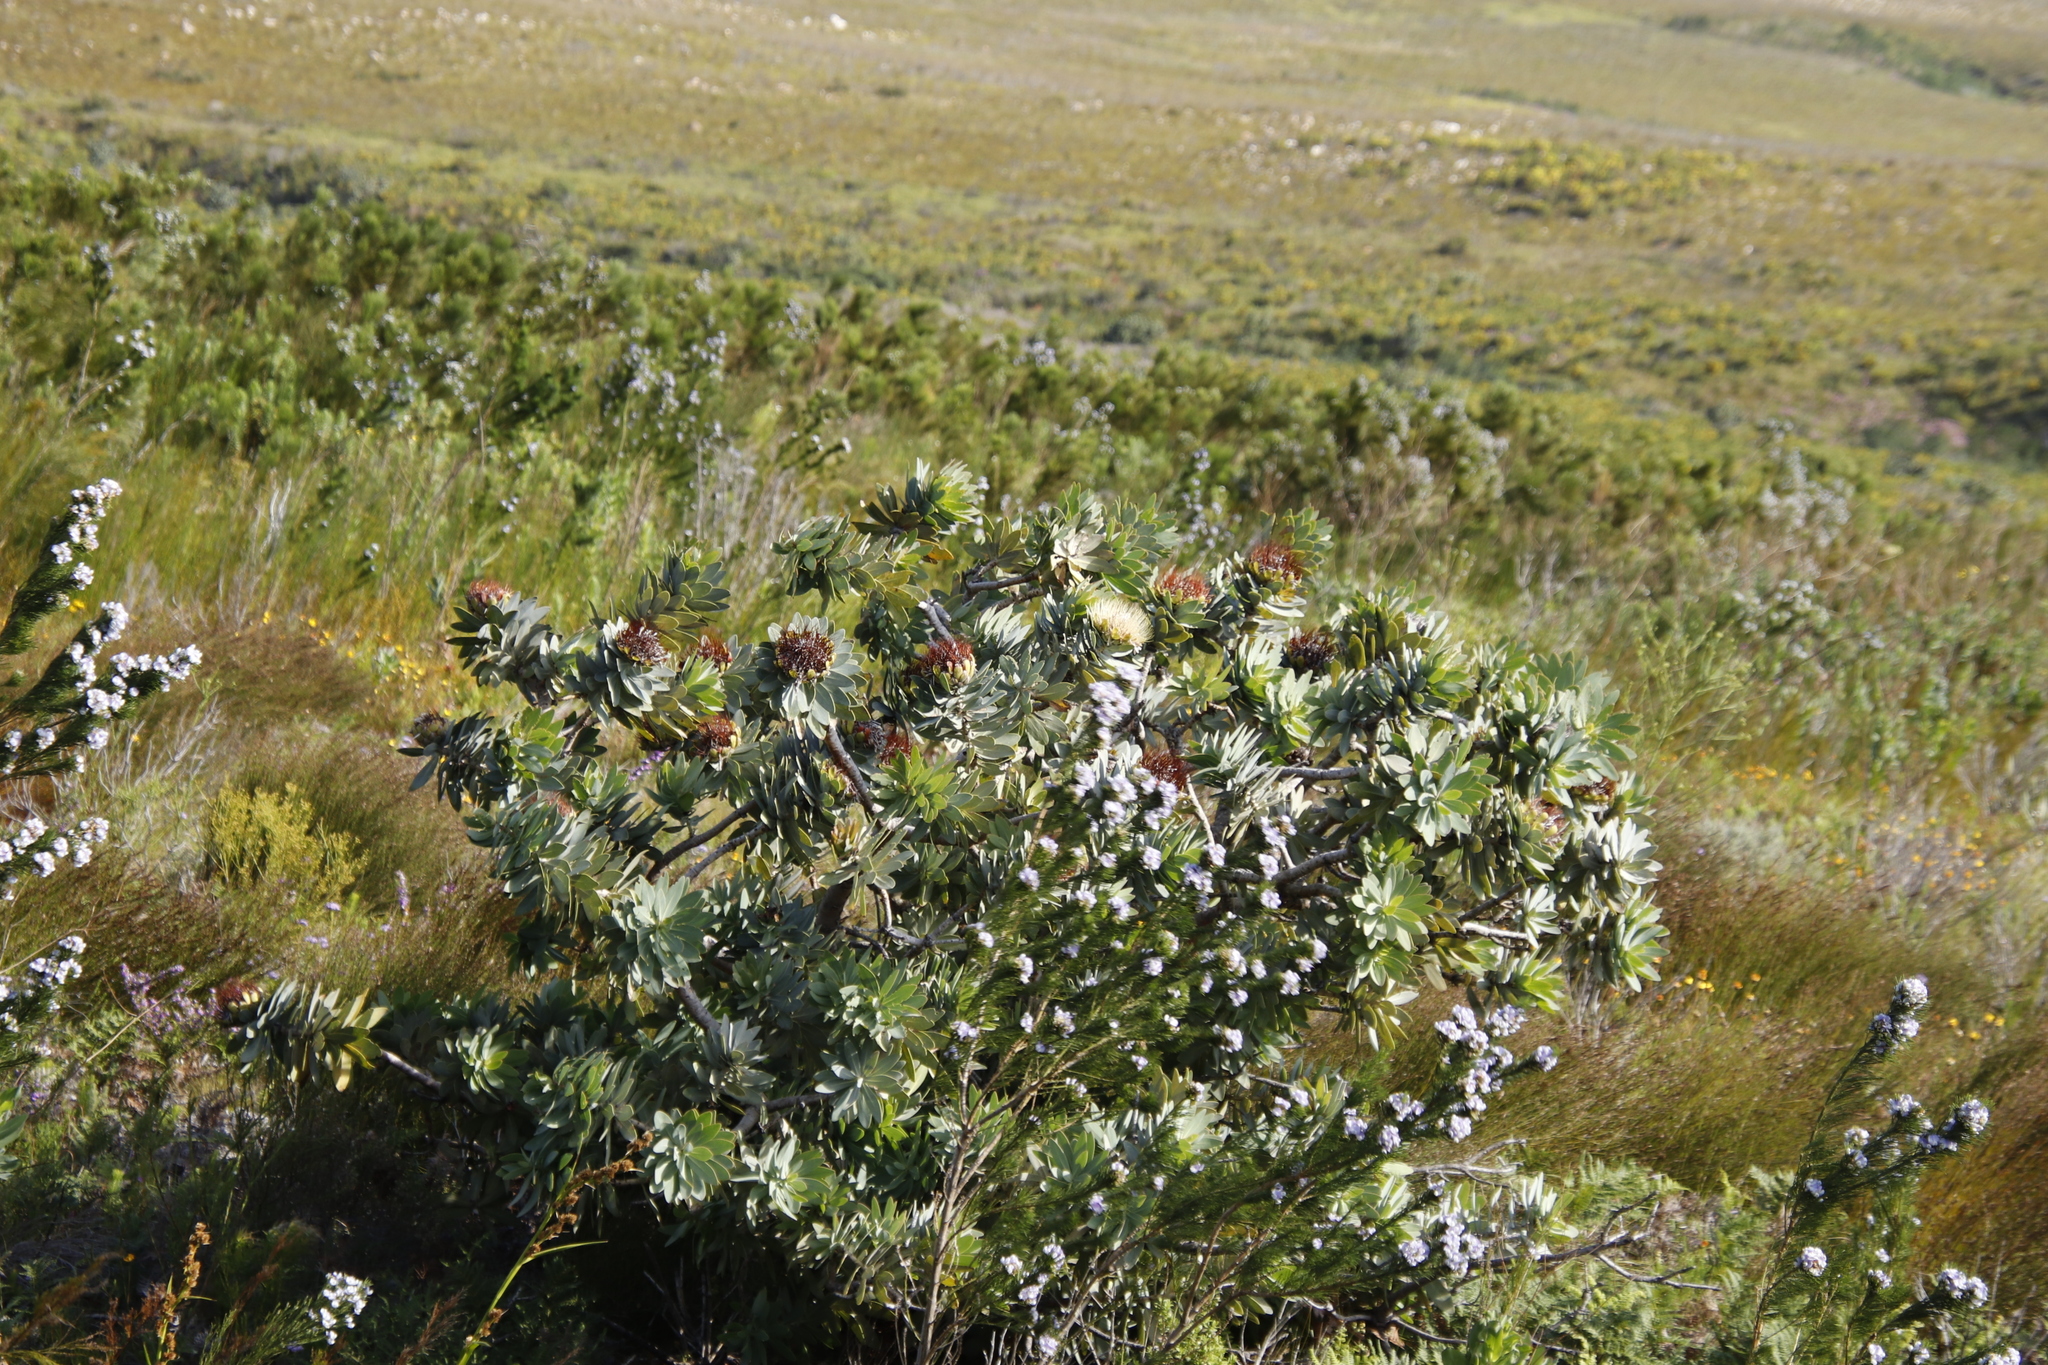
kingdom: Plantae
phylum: Tracheophyta
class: Magnoliopsida
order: Proteales
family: Proteaceae
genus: Protea
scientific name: Protea nitida
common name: Tree protea
